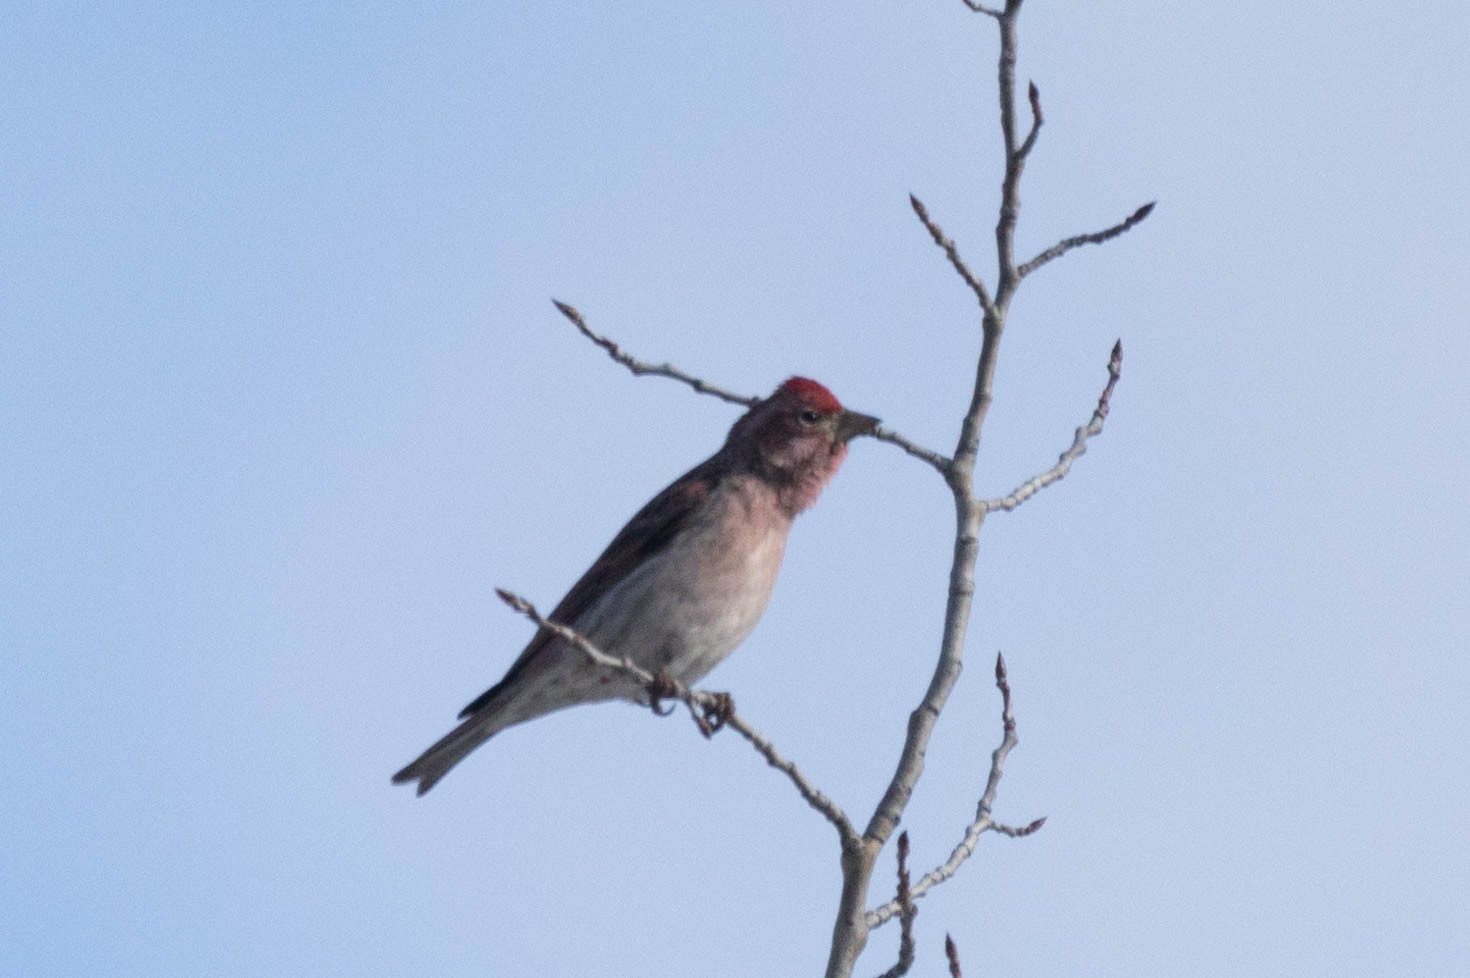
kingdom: Animalia
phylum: Chordata
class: Aves
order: Passeriformes
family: Fringillidae
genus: Haemorhous
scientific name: Haemorhous cassinii
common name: Cassin's finch
